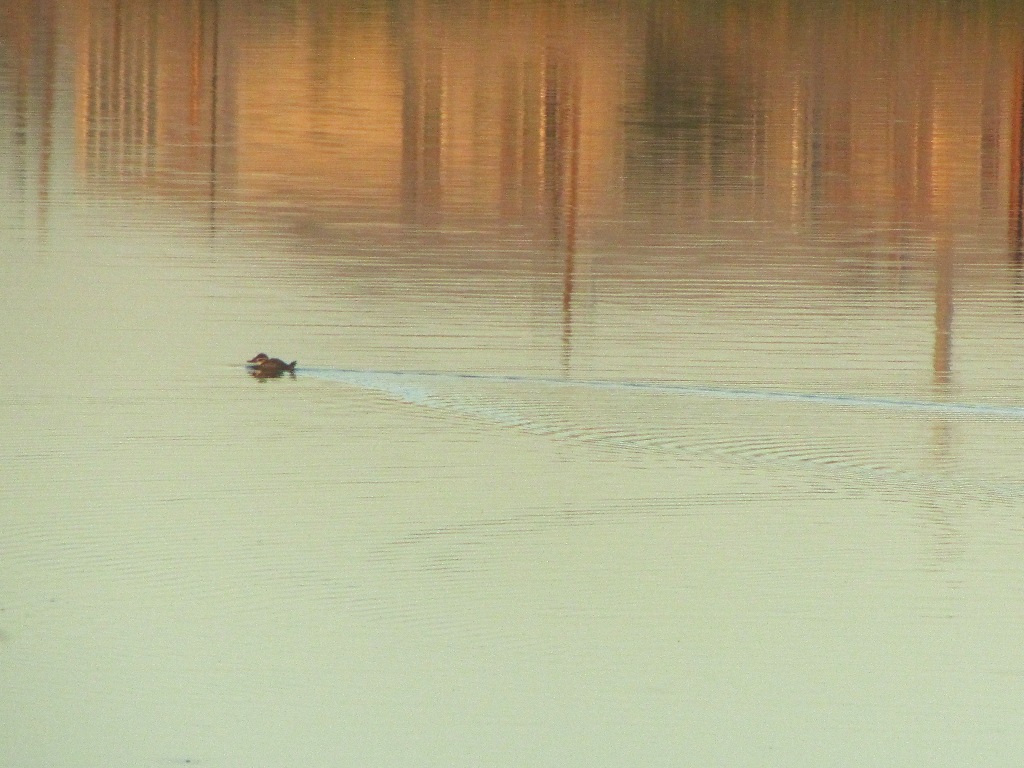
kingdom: Animalia
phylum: Chordata
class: Aves
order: Anseriformes
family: Anatidae
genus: Oxyura
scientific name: Oxyura leucocephala
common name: White-headed duck
